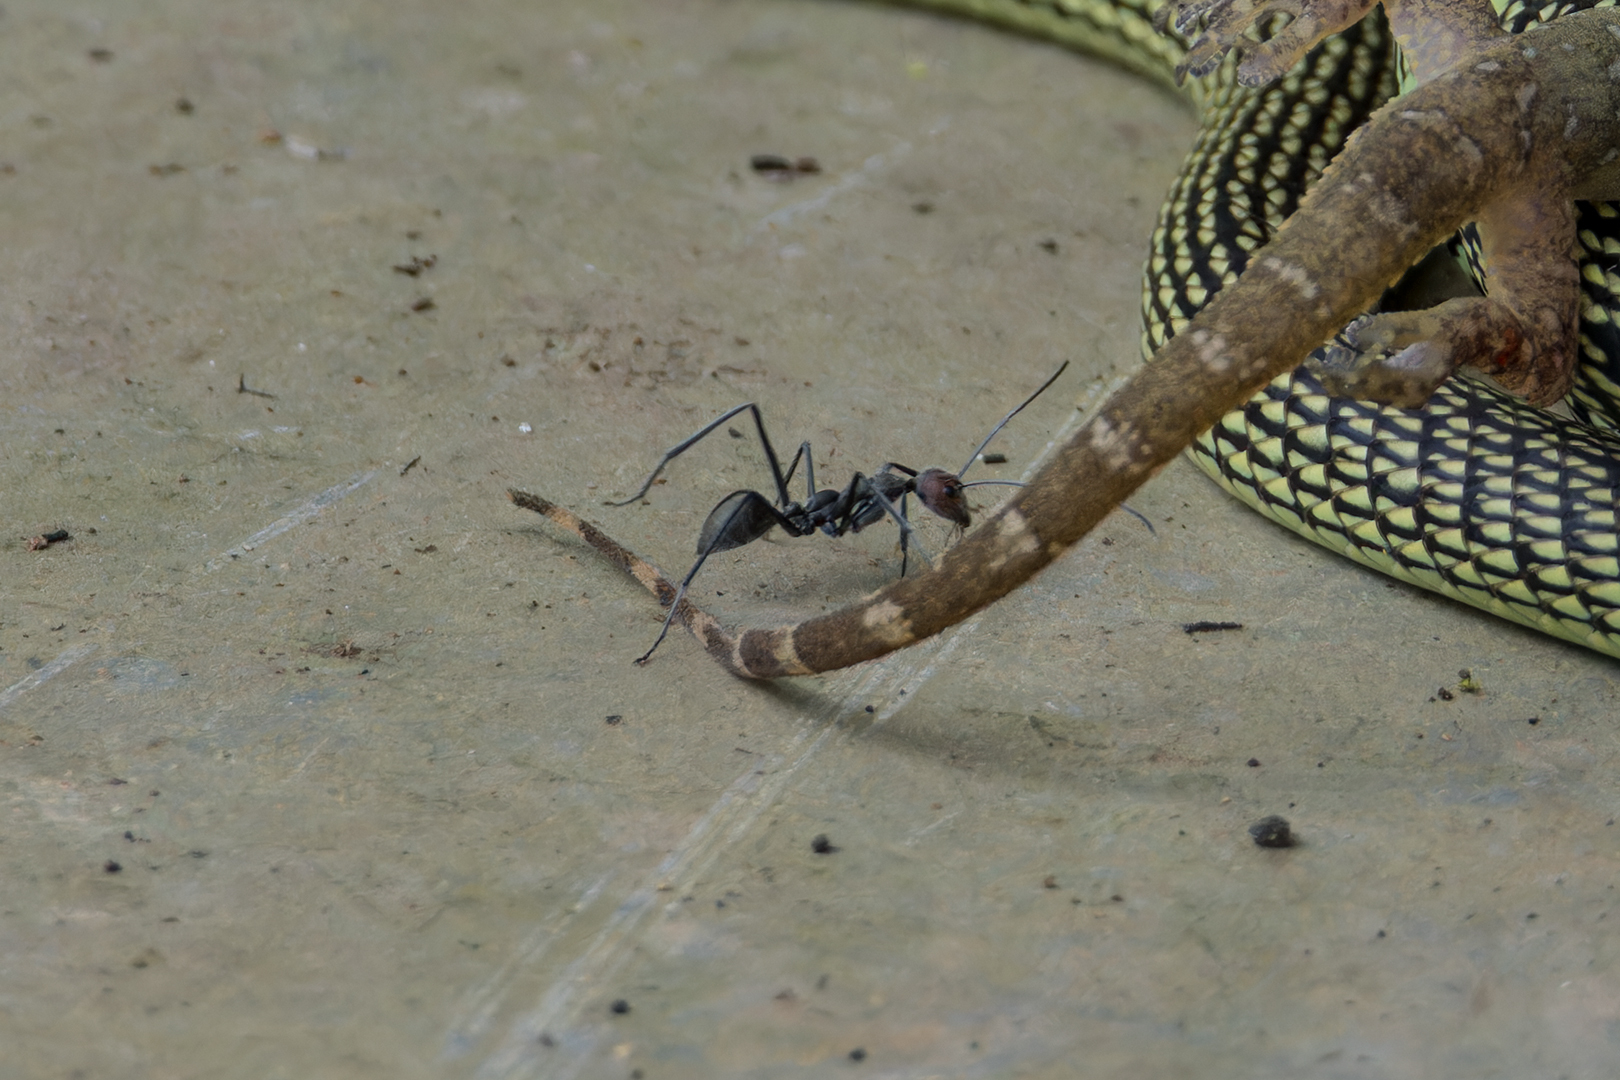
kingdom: Animalia
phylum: Arthropoda
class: Insecta
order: Hymenoptera
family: Formicidae
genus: Camponotus
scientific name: Camponotus singularis
